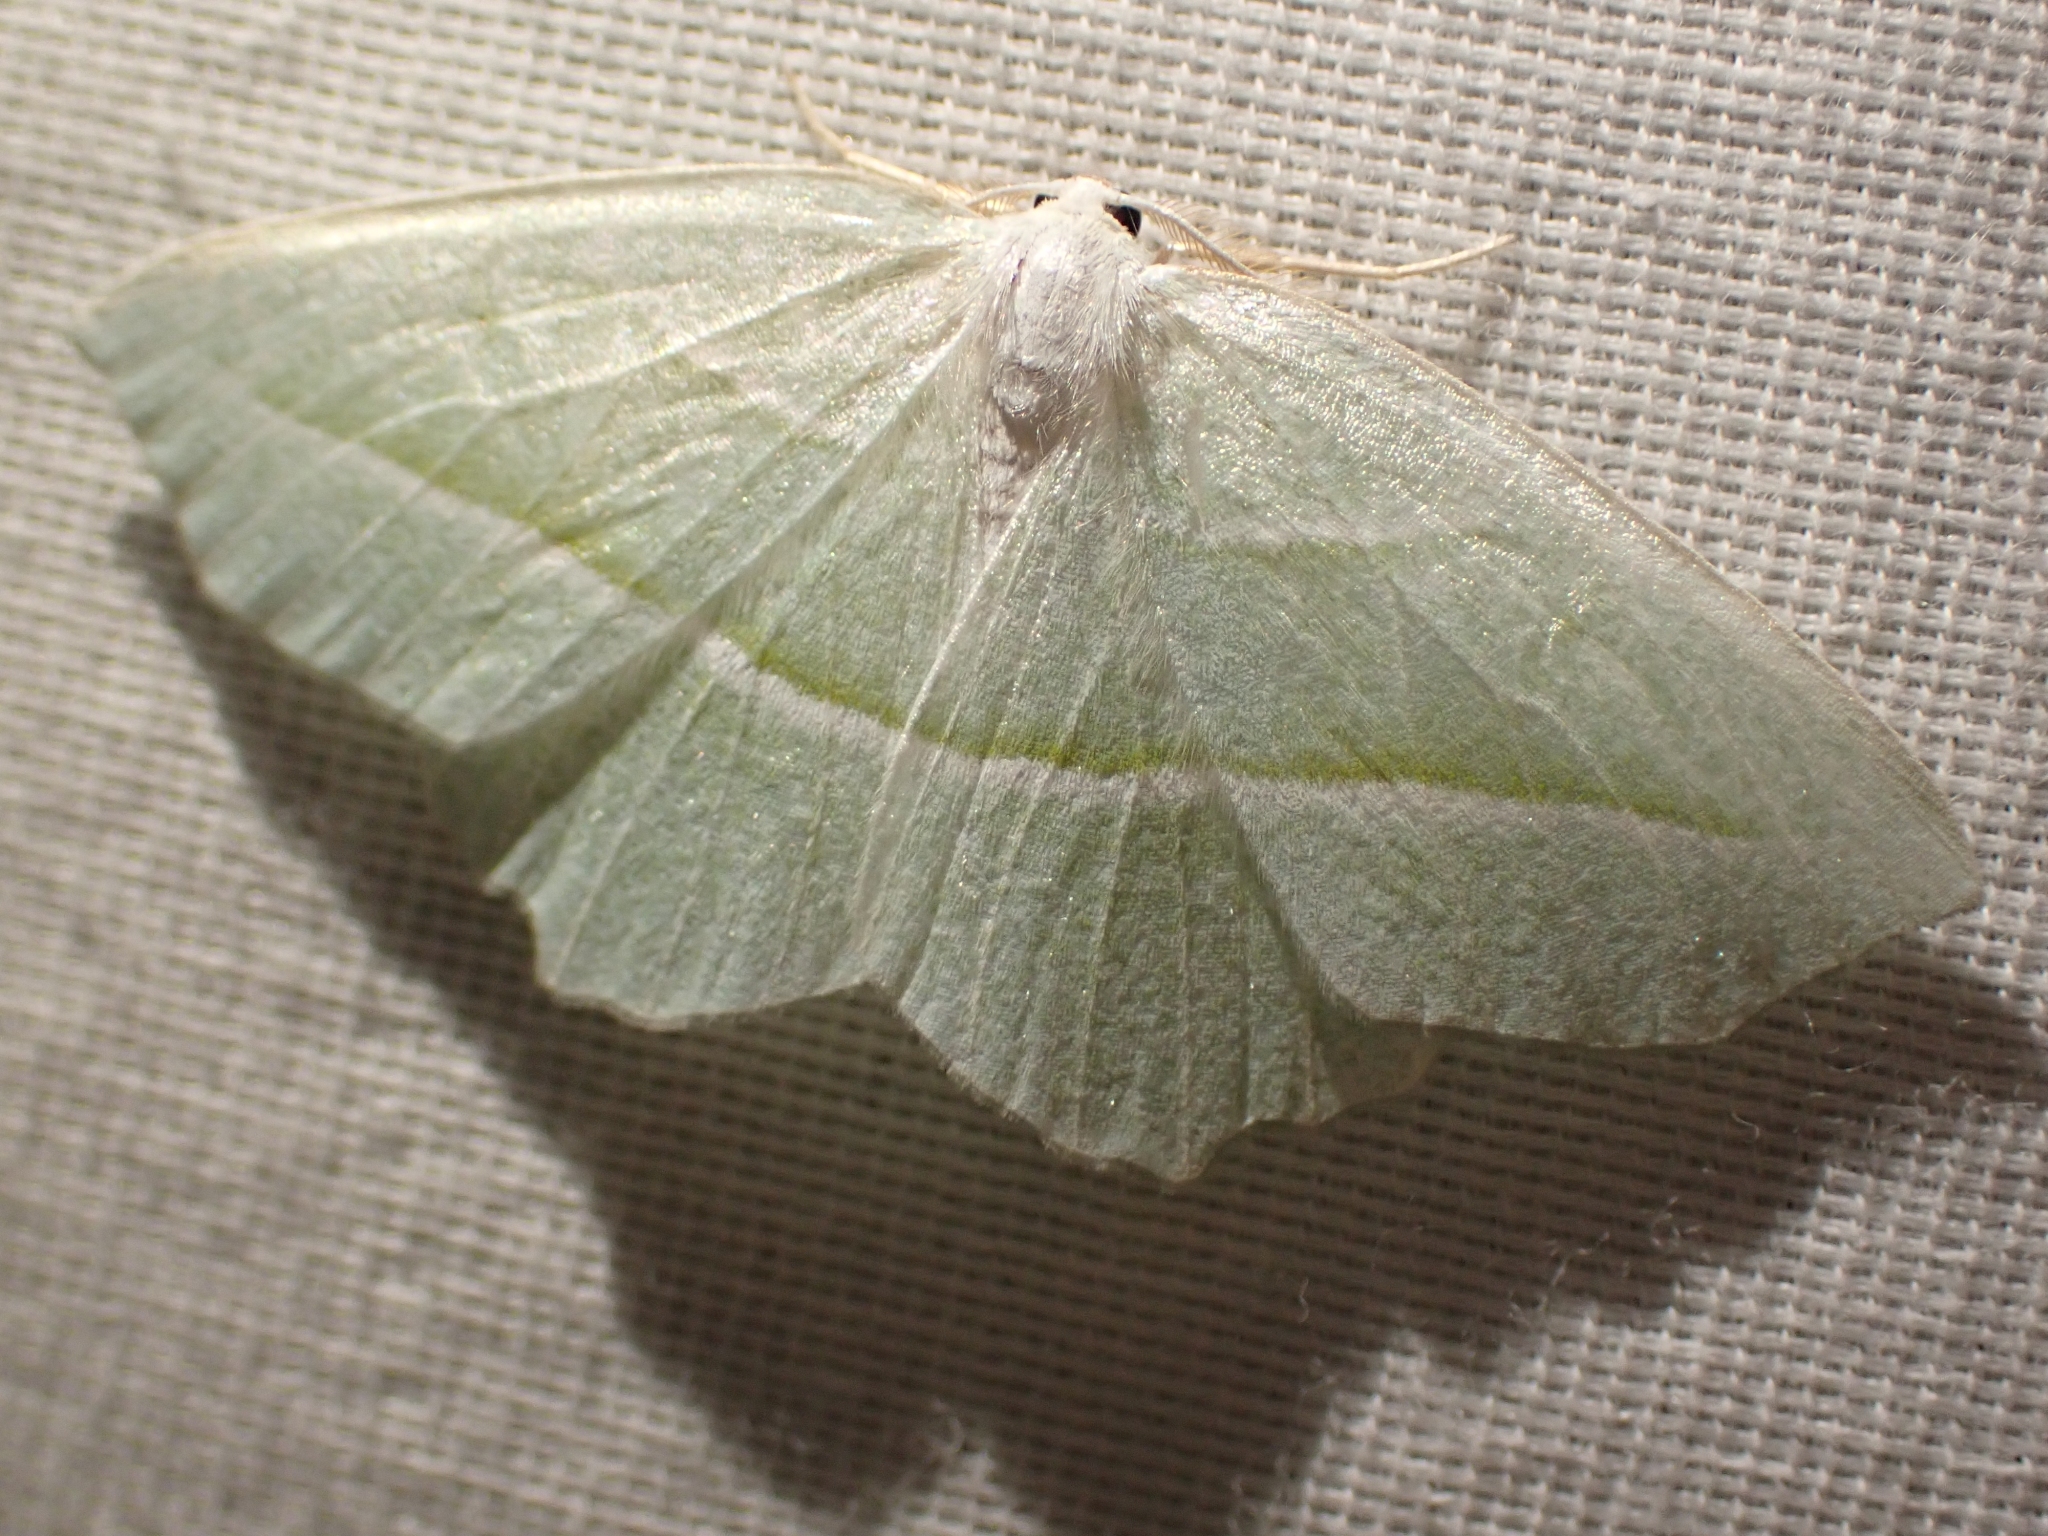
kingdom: Animalia
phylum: Arthropoda
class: Insecta
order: Lepidoptera
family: Geometridae
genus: Campaea
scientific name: Campaea perlata
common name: Fringed looper
